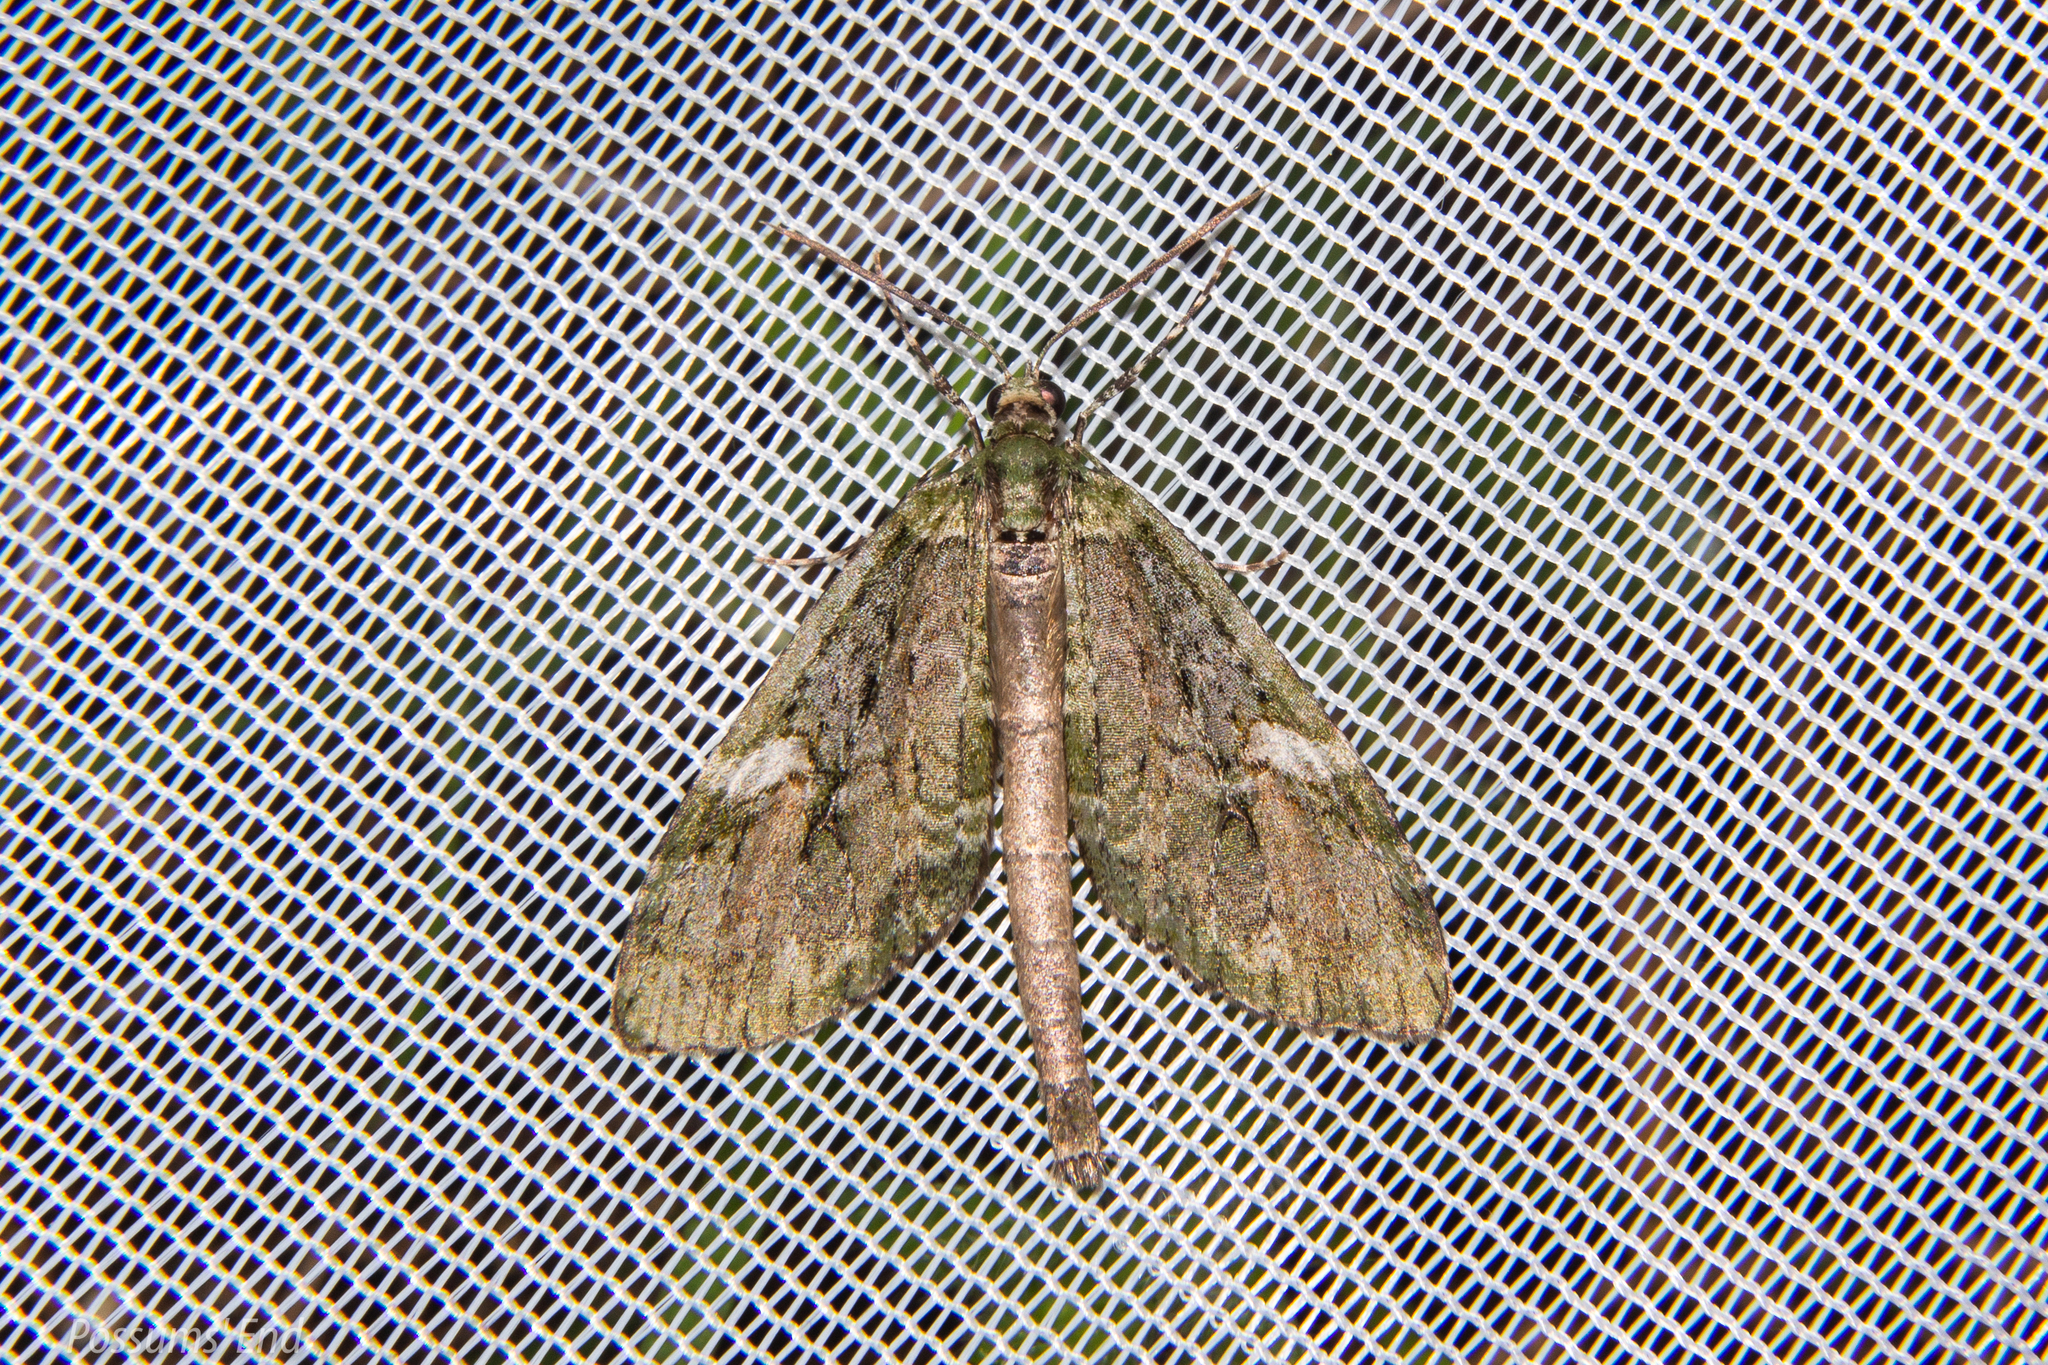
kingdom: Animalia
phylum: Arthropoda
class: Insecta
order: Lepidoptera
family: Geometridae
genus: Tatosoma
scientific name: Tatosoma topea
